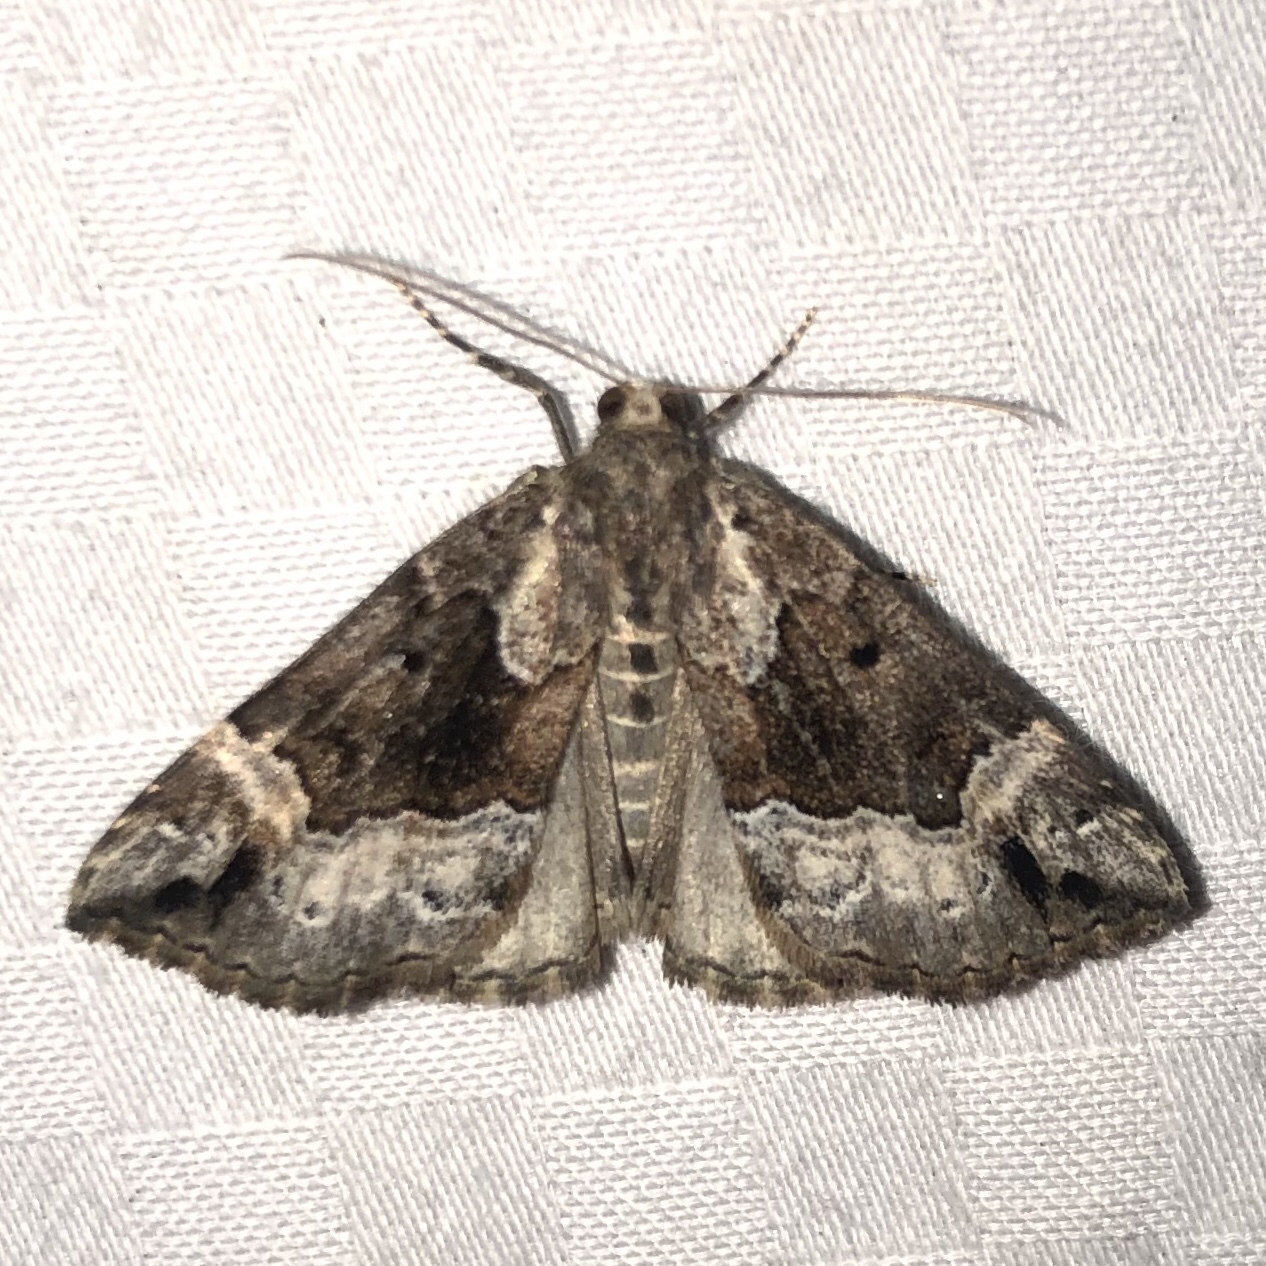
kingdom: Animalia
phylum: Arthropoda
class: Insecta
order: Lepidoptera
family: Erebidae
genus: Hypena
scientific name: Hypena palparia
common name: Mottled bomolocha moth
